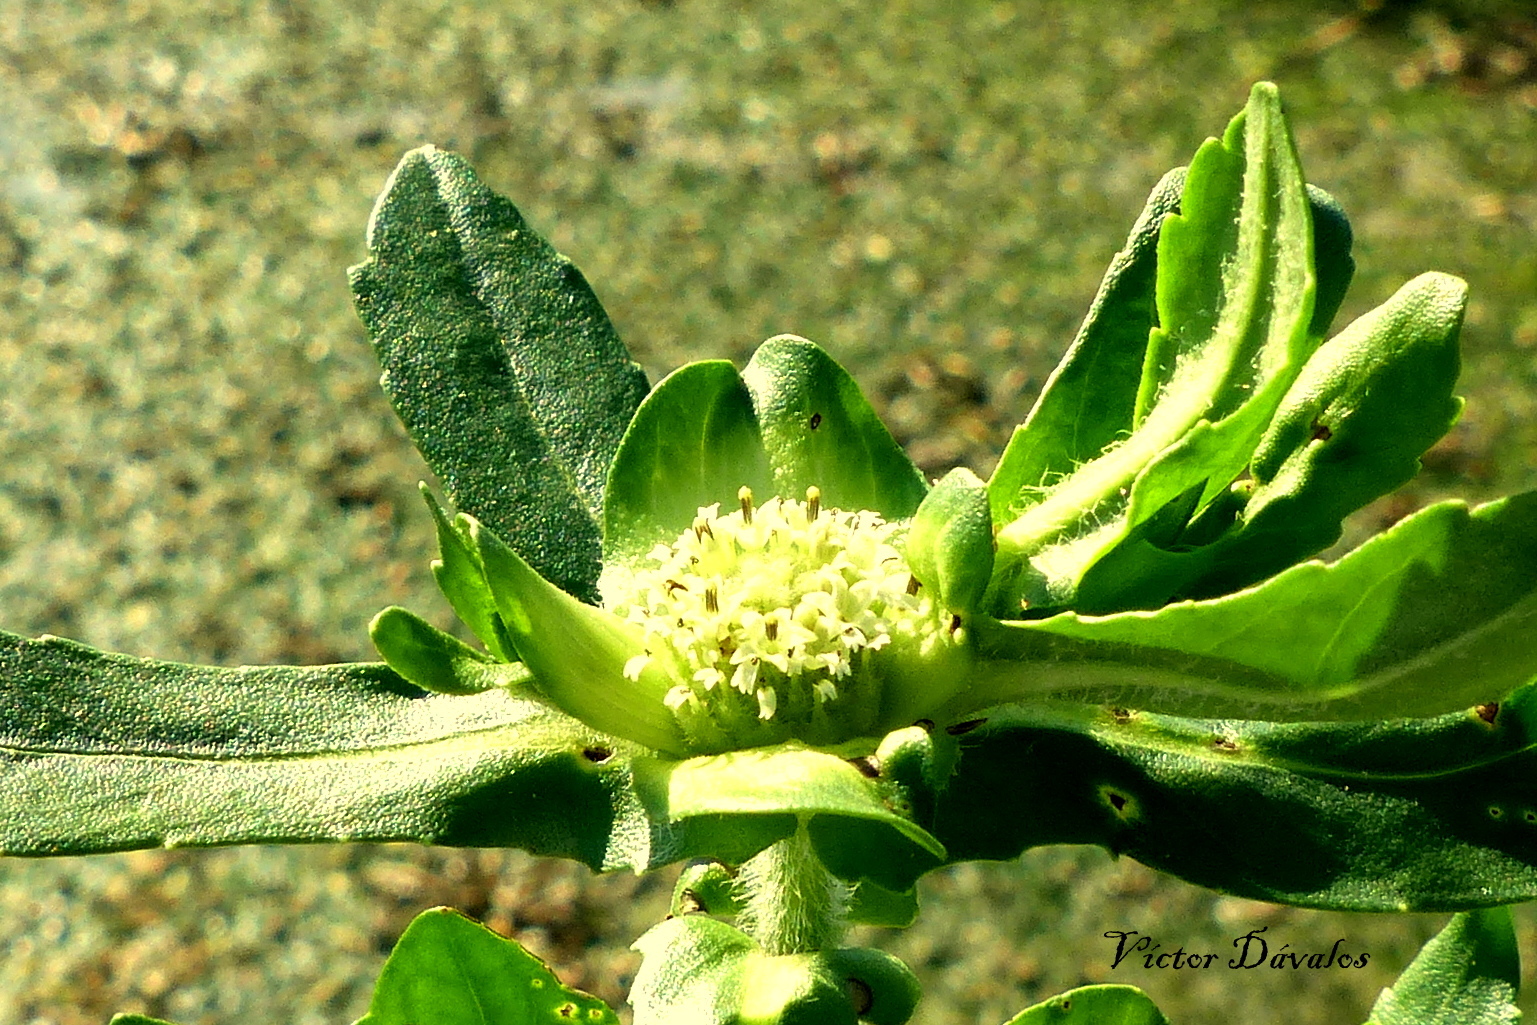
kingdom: Plantae
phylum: Tracheophyta
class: Magnoliopsida
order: Asterales
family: Asteraceae
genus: Enydra
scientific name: Enydra fluctuans
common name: Buffalo spinach
